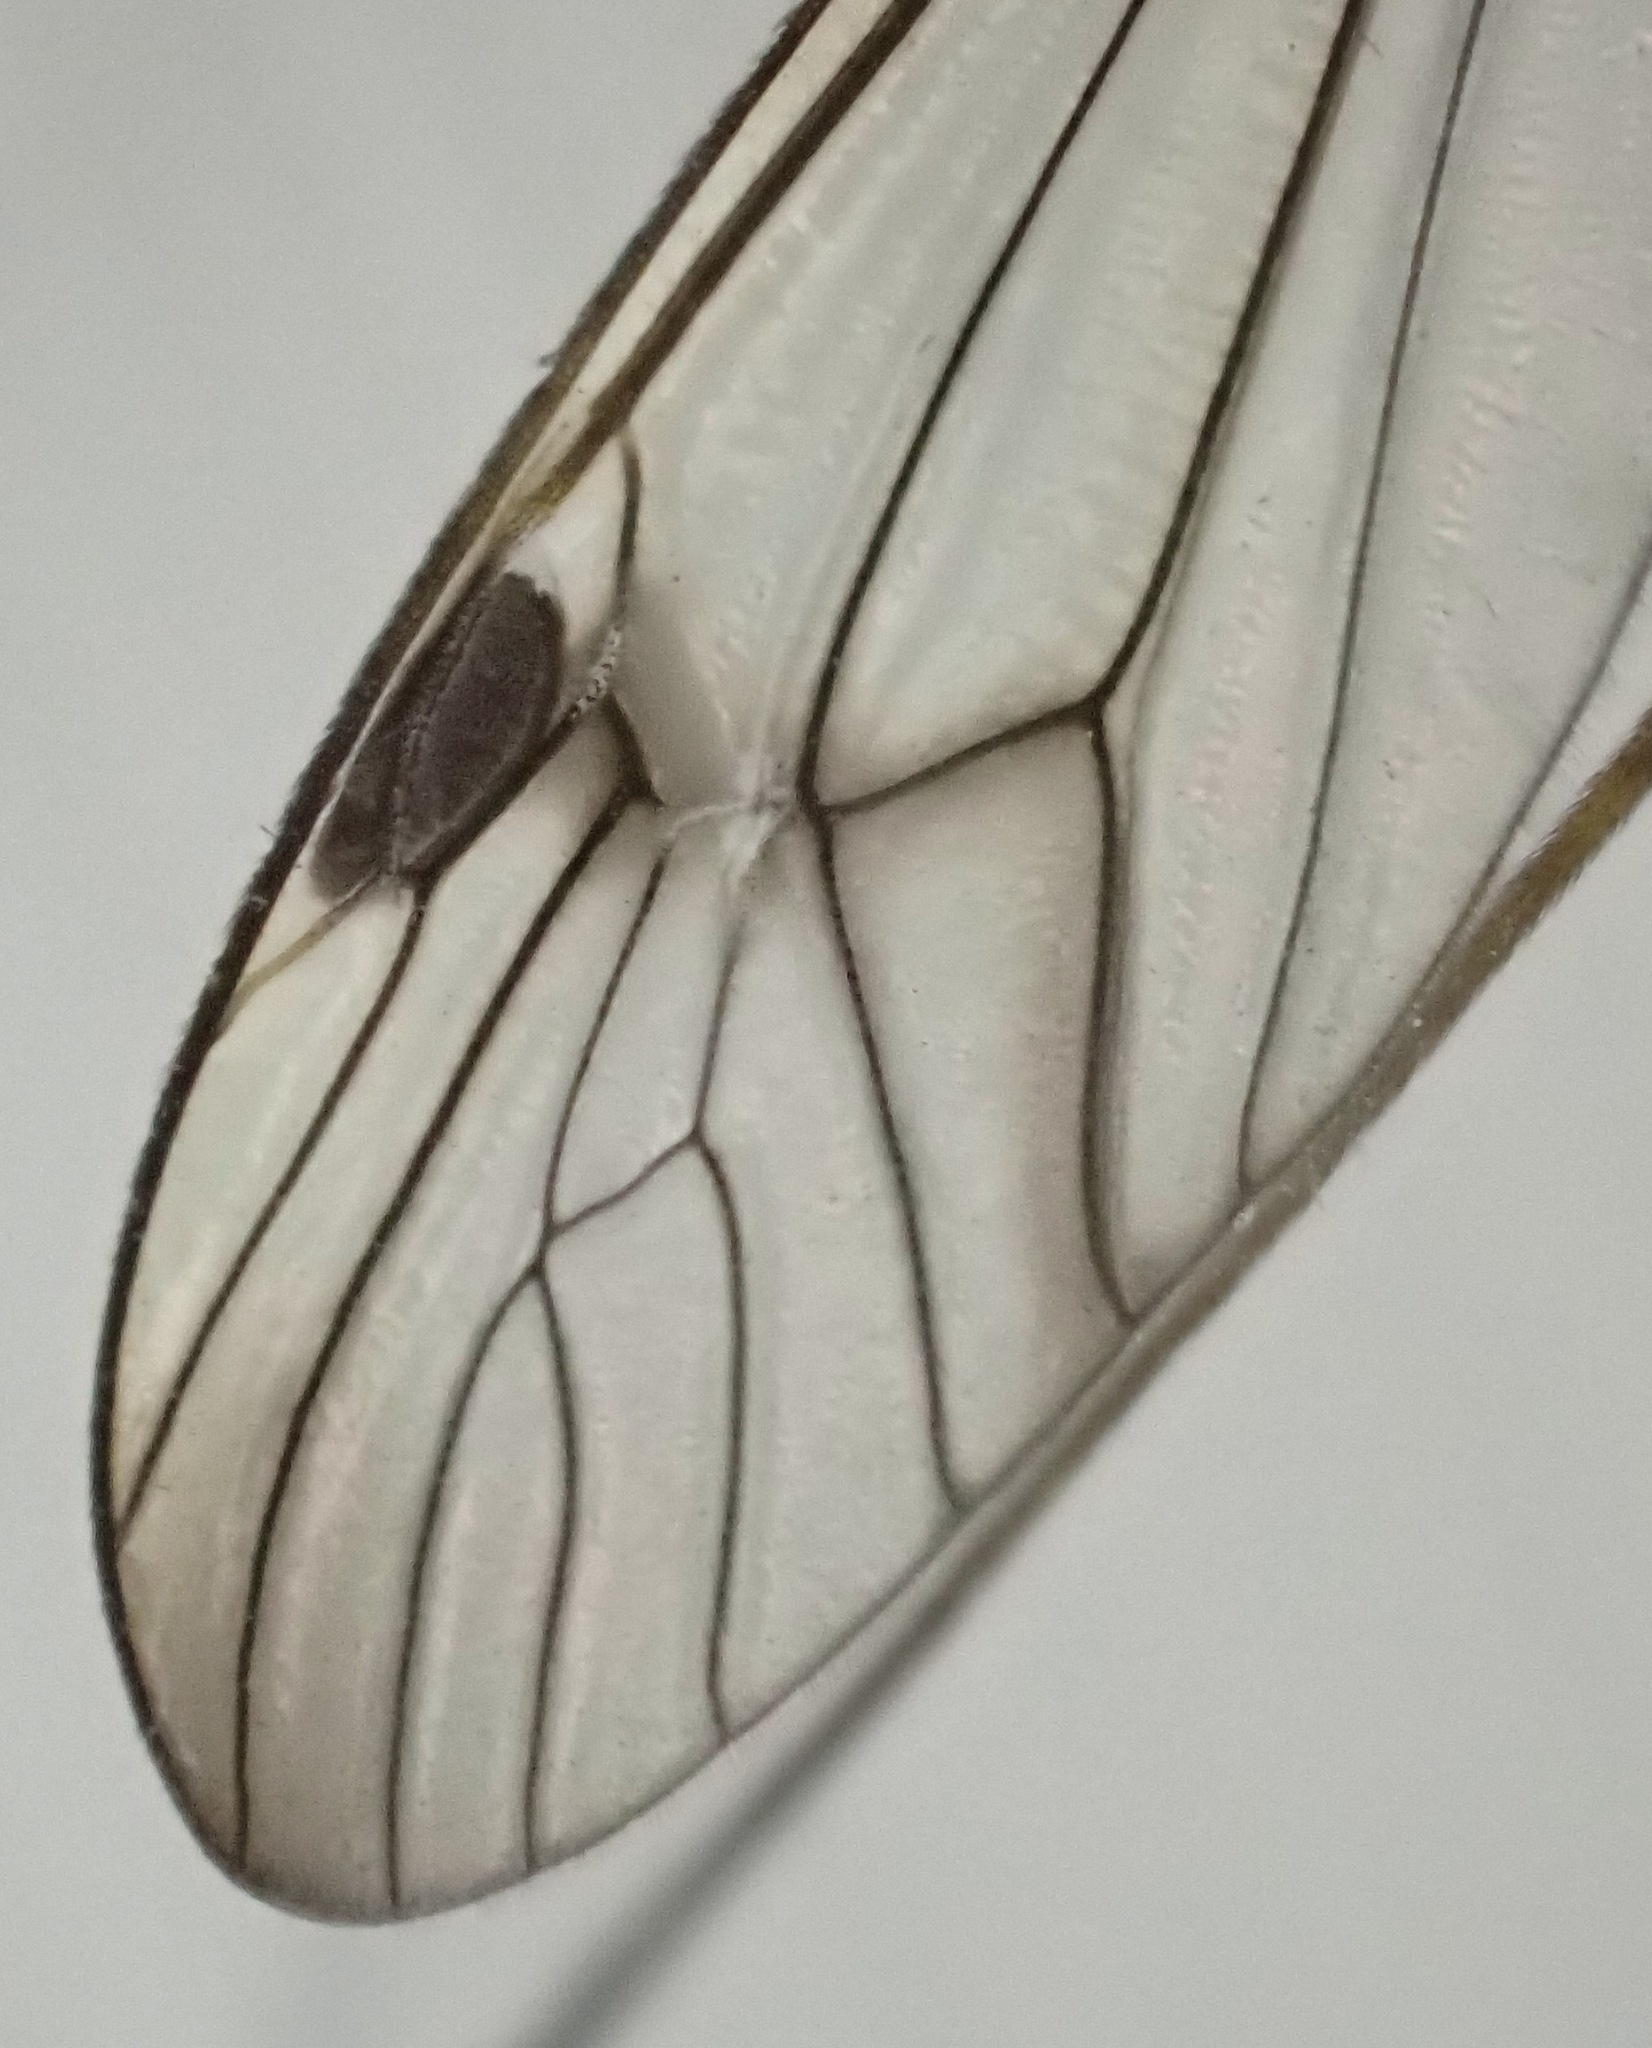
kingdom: Animalia
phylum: Arthropoda
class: Insecta
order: Diptera
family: Tipulidae
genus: Nephrotoma
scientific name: Nephrotoma quadrifaria
